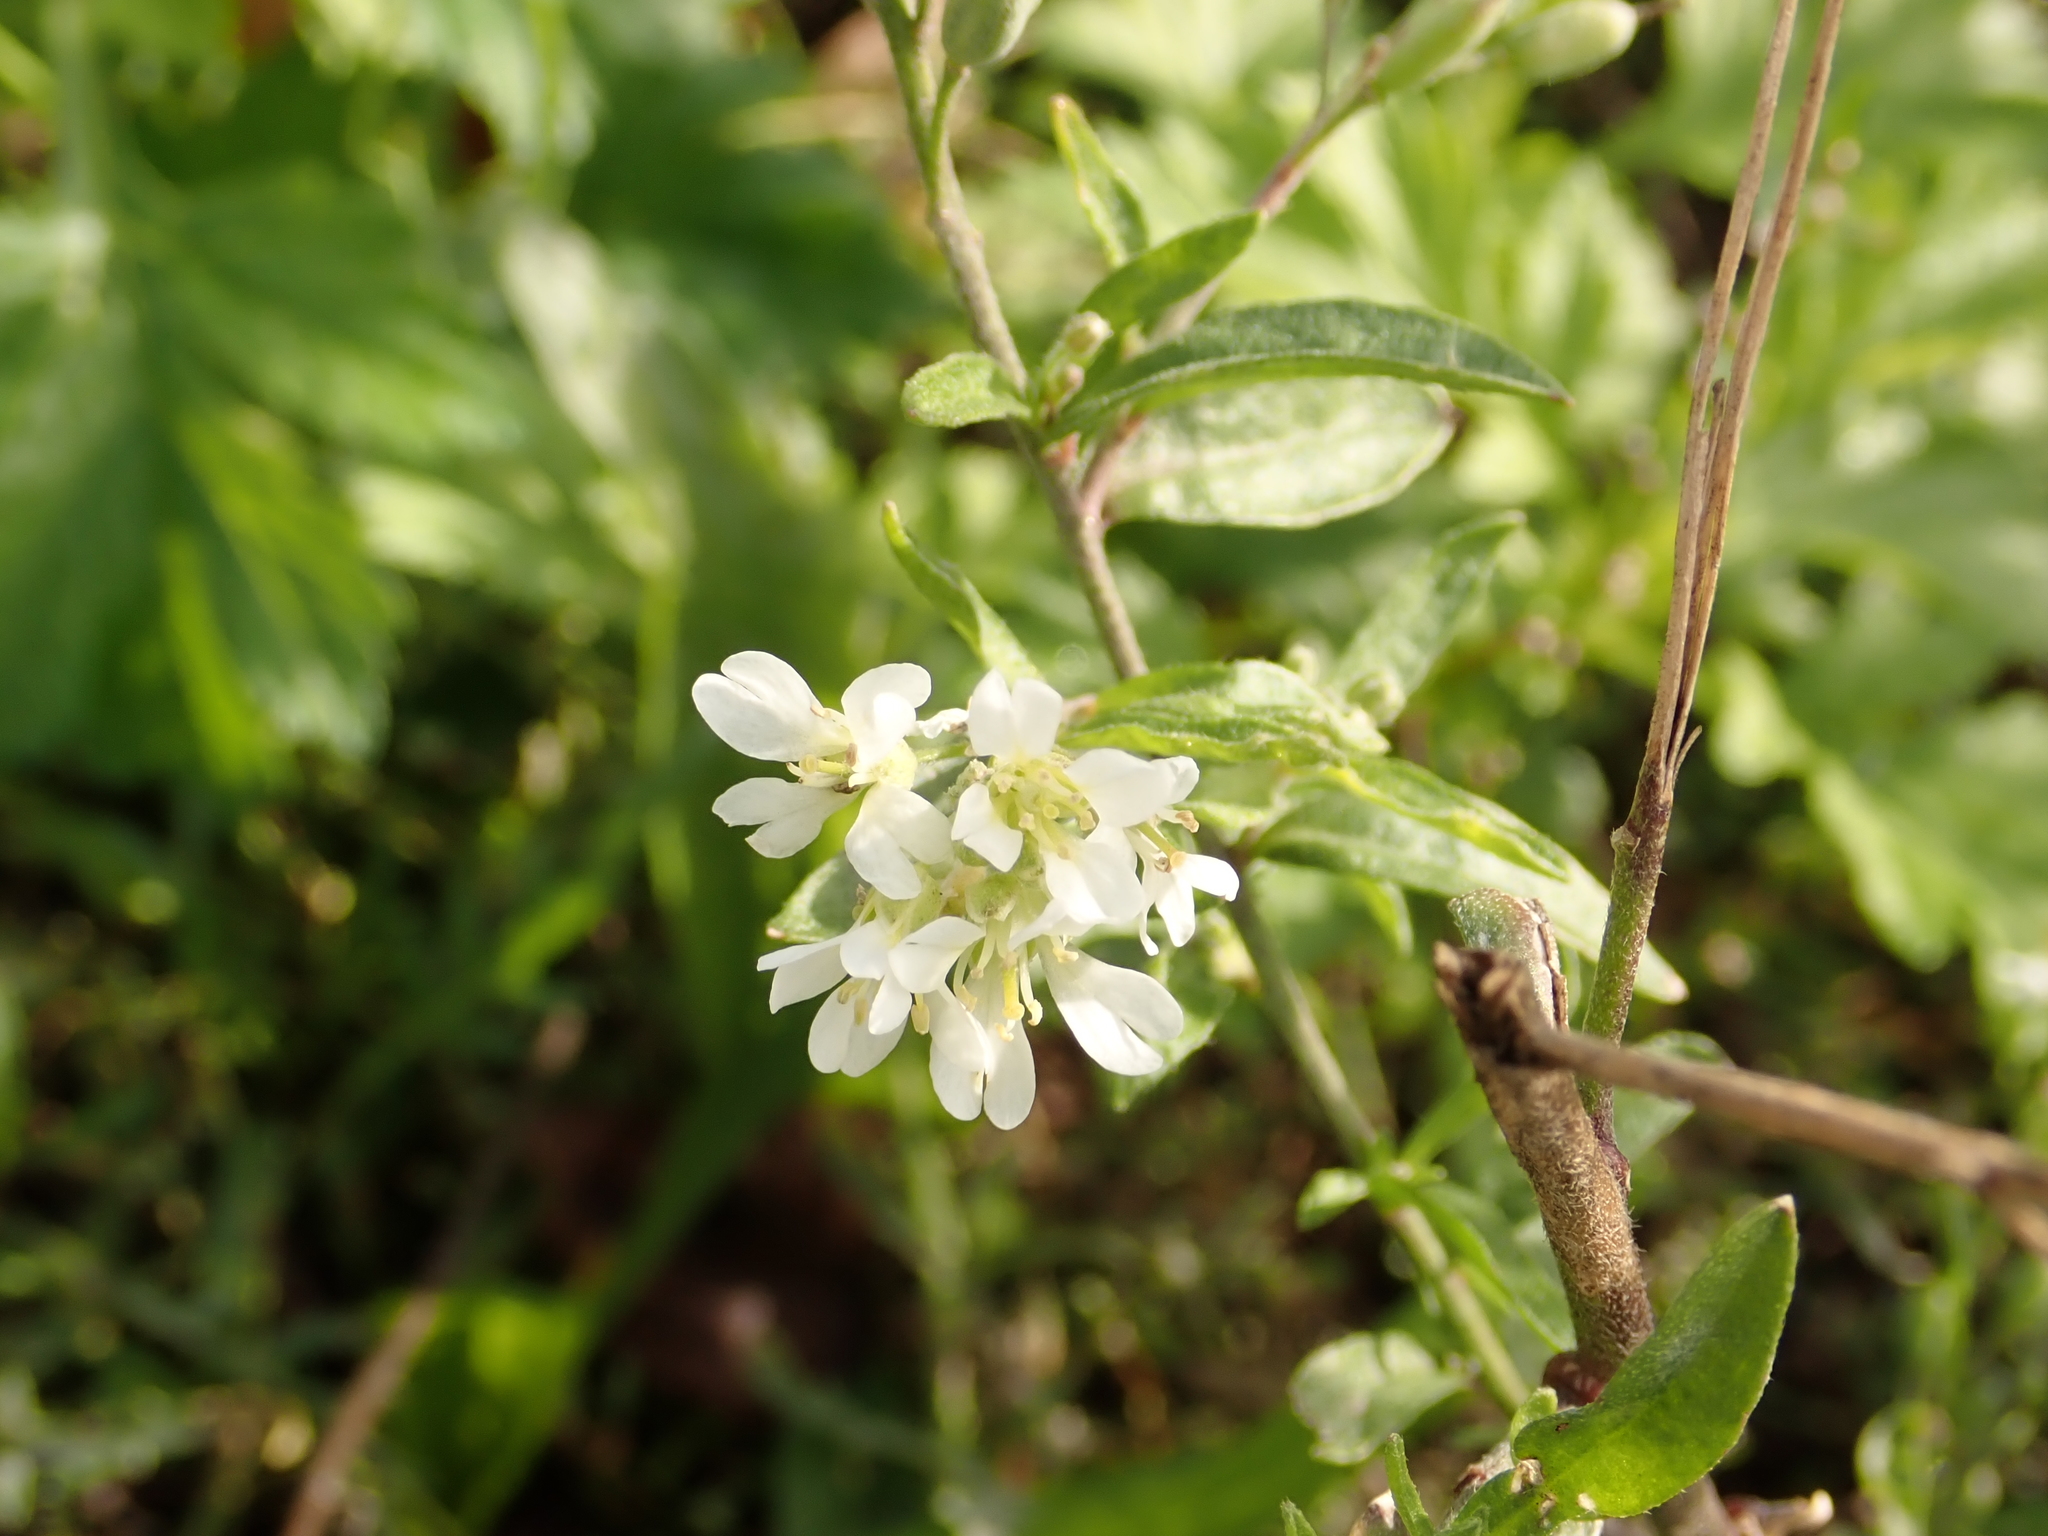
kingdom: Plantae
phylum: Tracheophyta
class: Magnoliopsida
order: Brassicales
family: Brassicaceae
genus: Berteroa
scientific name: Berteroa incana
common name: Hoary alison
